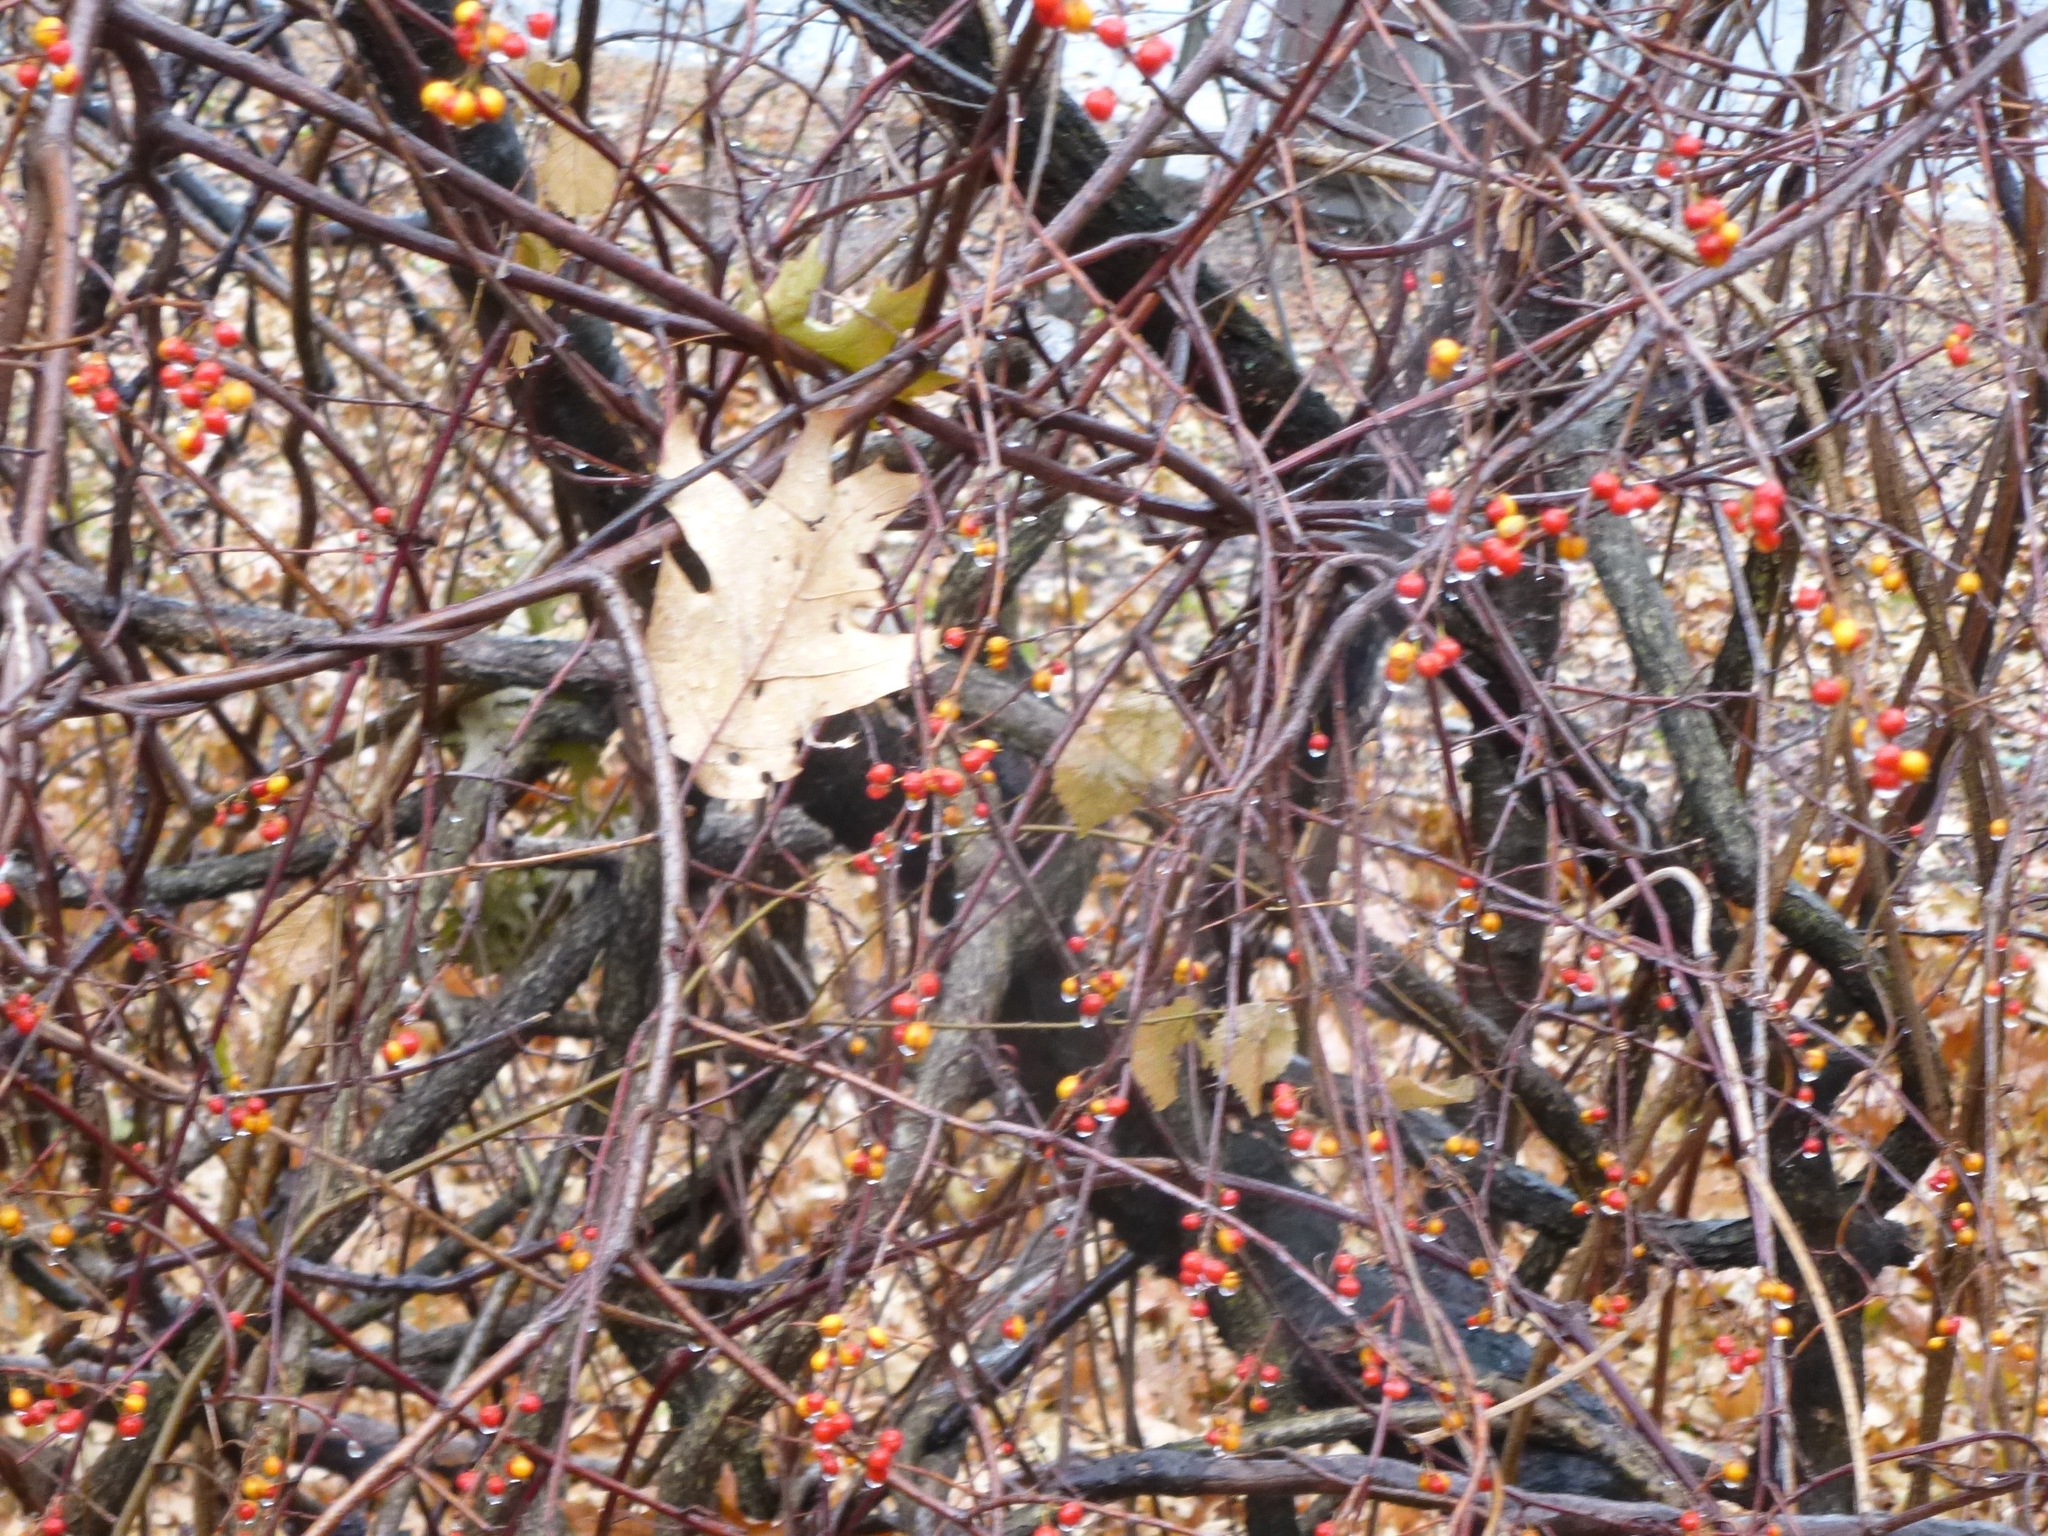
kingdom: Plantae
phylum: Tracheophyta
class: Magnoliopsida
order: Celastrales
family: Celastraceae
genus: Celastrus
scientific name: Celastrus orbiculatus
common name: Oriental bittersweet
